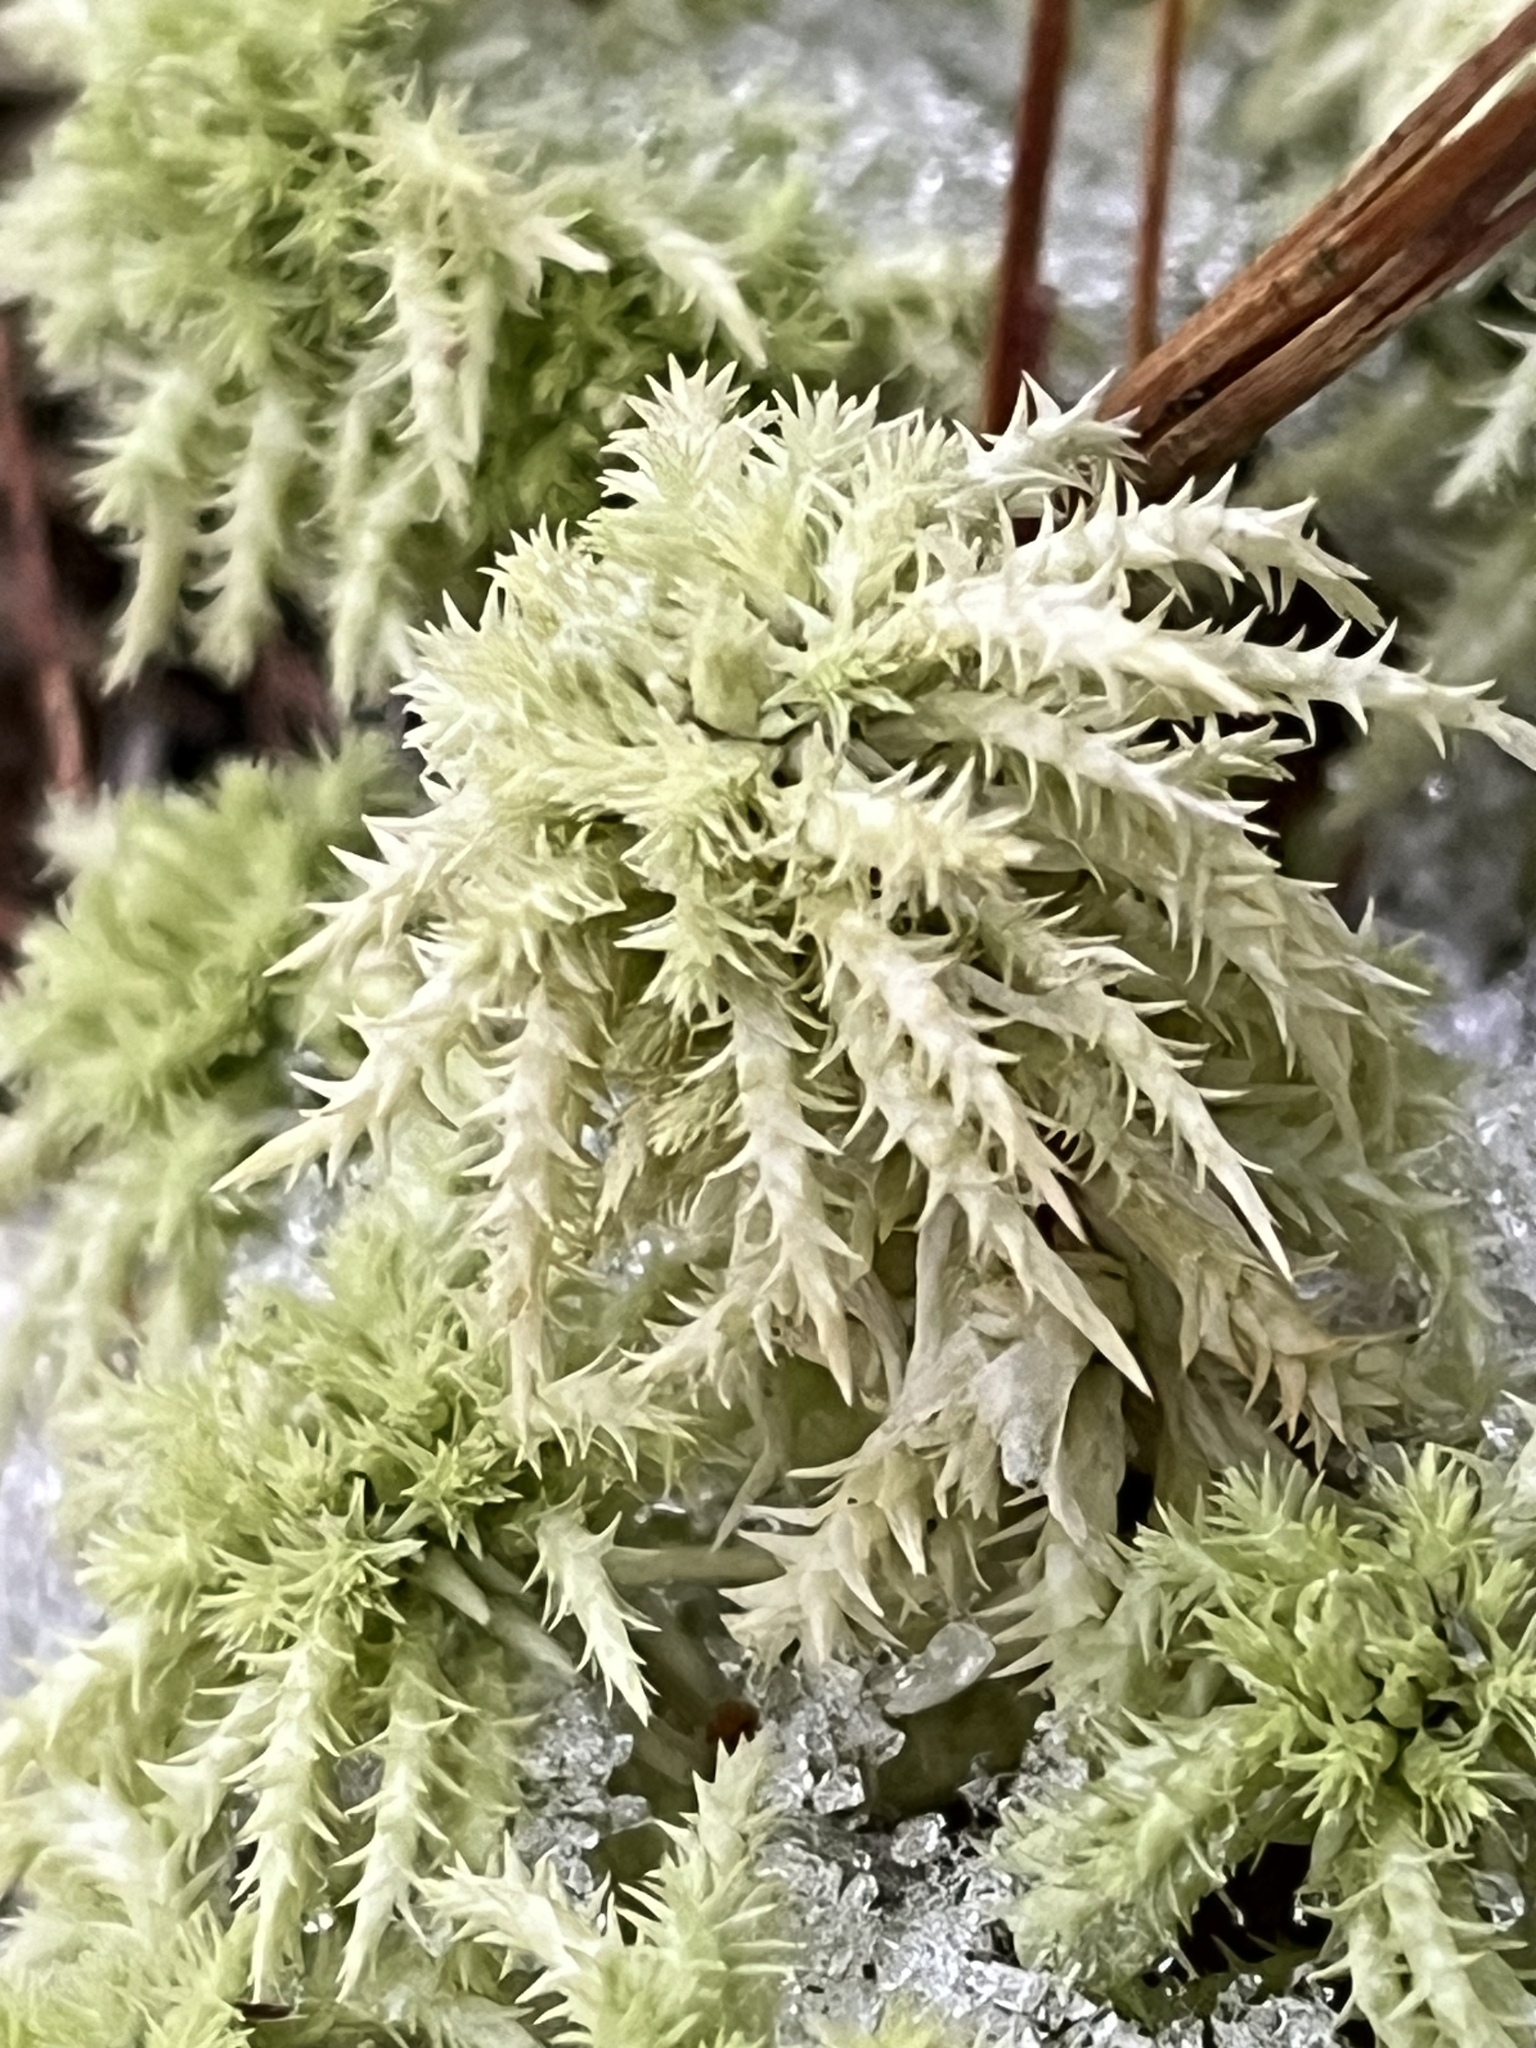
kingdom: Plantae
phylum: Bryophyta
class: Sphagnopsida
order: Sphagnales
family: Sphagnaceae
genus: Sphagnum
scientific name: Sphagnum squarrosum
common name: Shaggy peat moss
